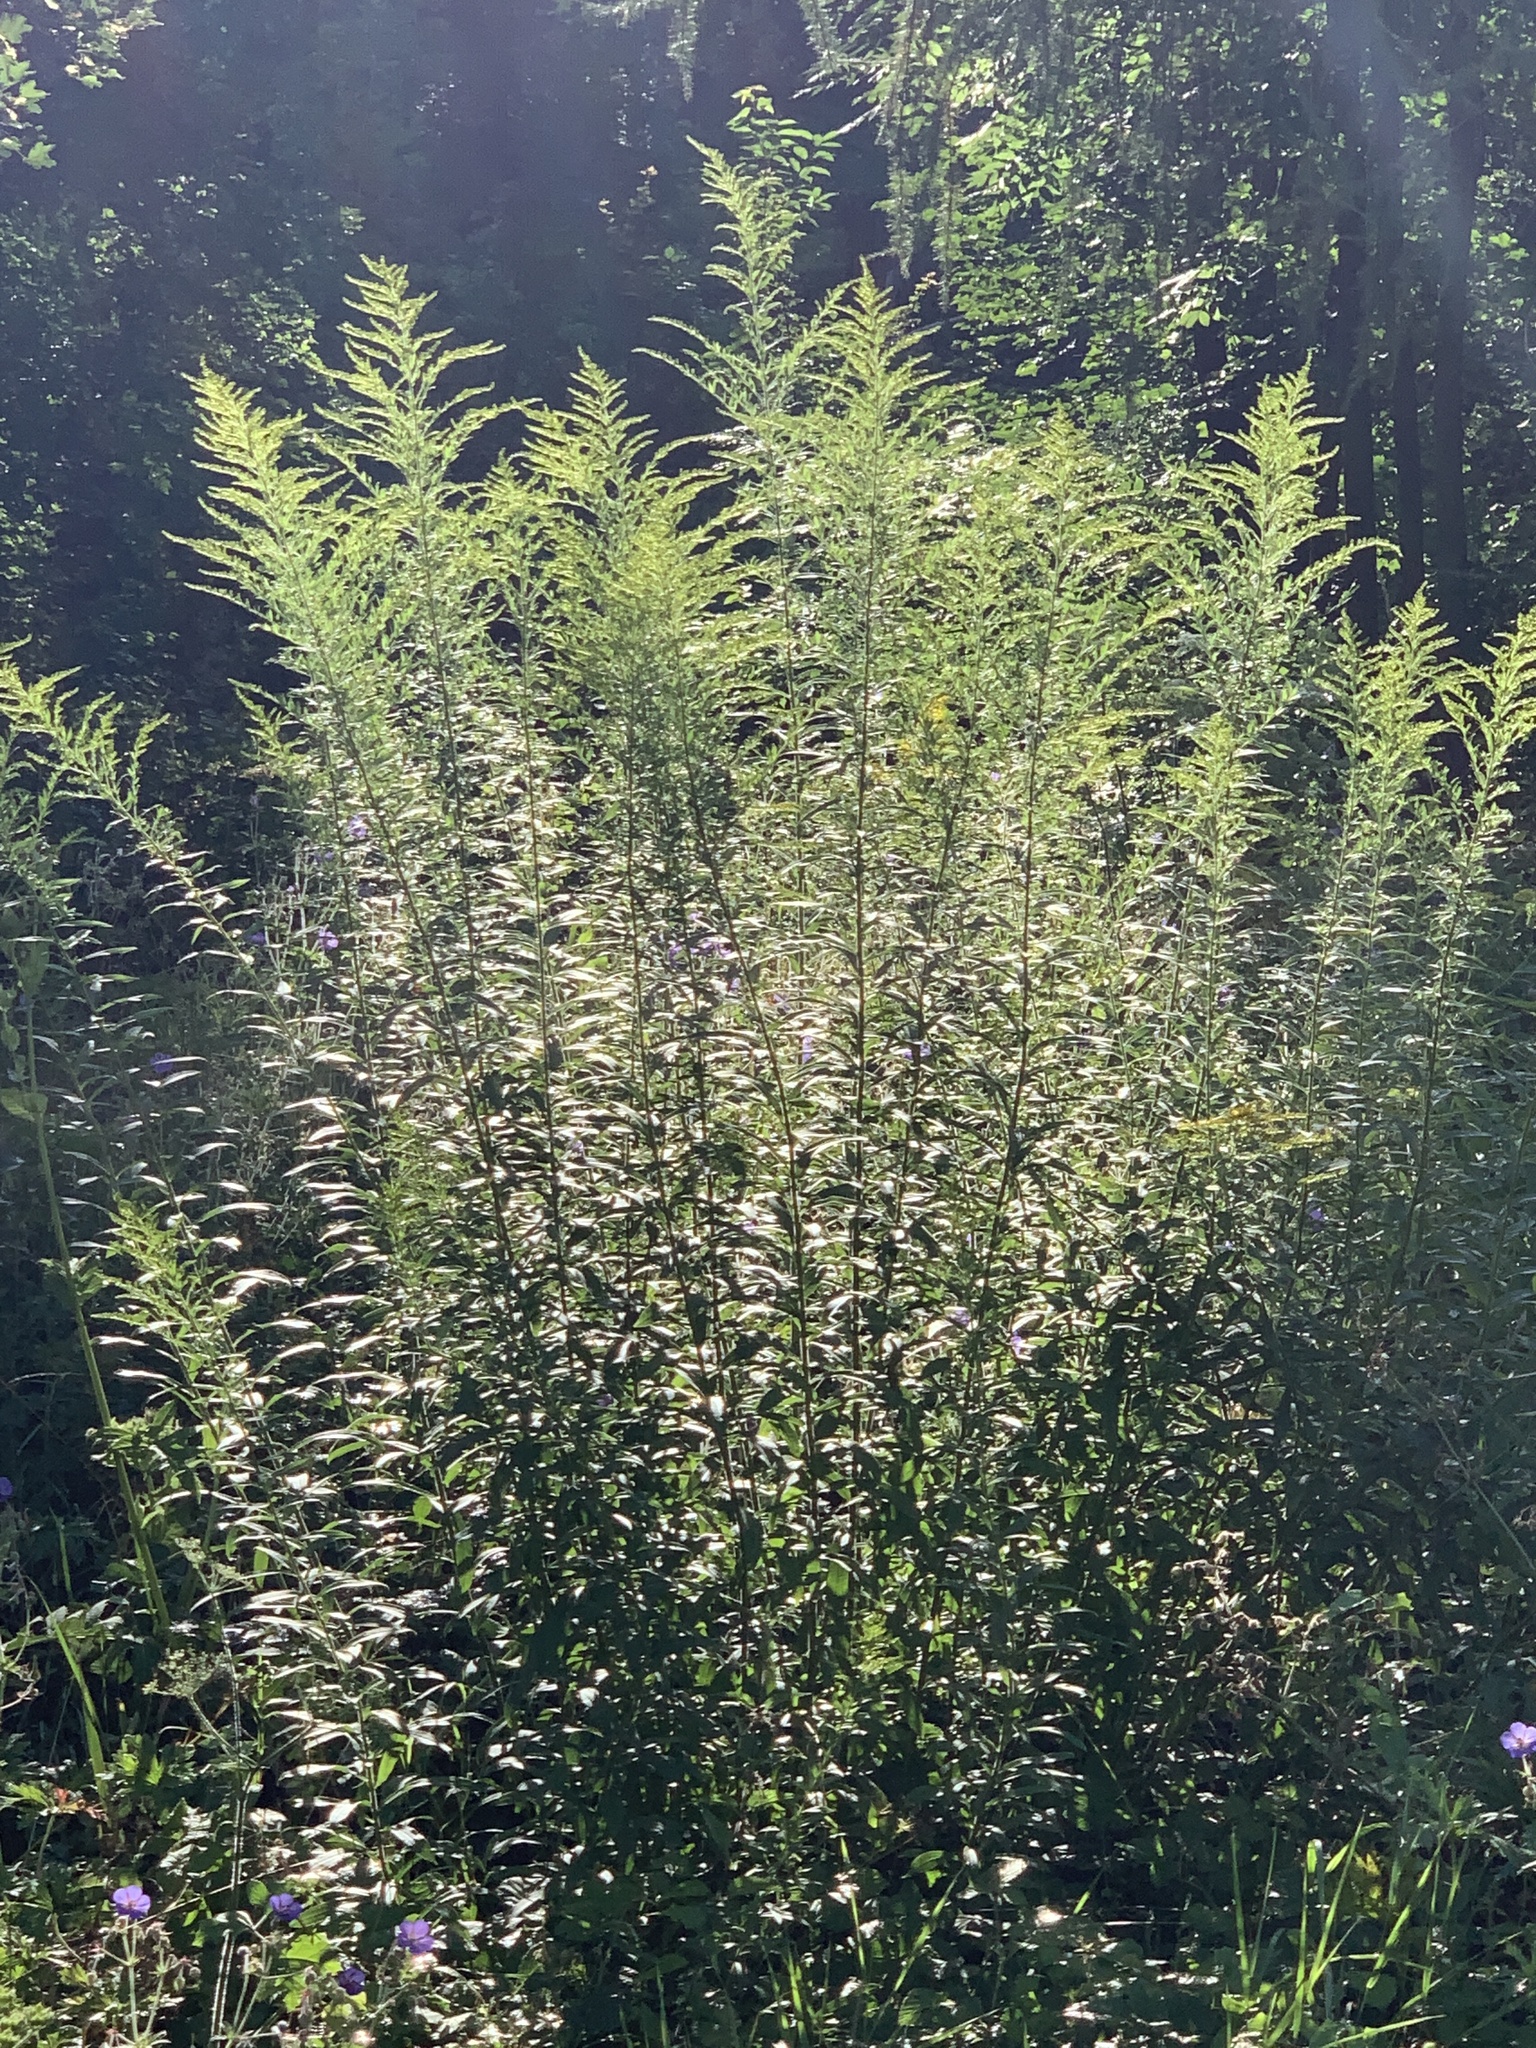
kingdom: Plantae
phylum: Tracheophyta
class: Magnoliopsida
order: Asterales
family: Asteraceae
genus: Solidago
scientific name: Solidago canadensis
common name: Canada goldenrod
